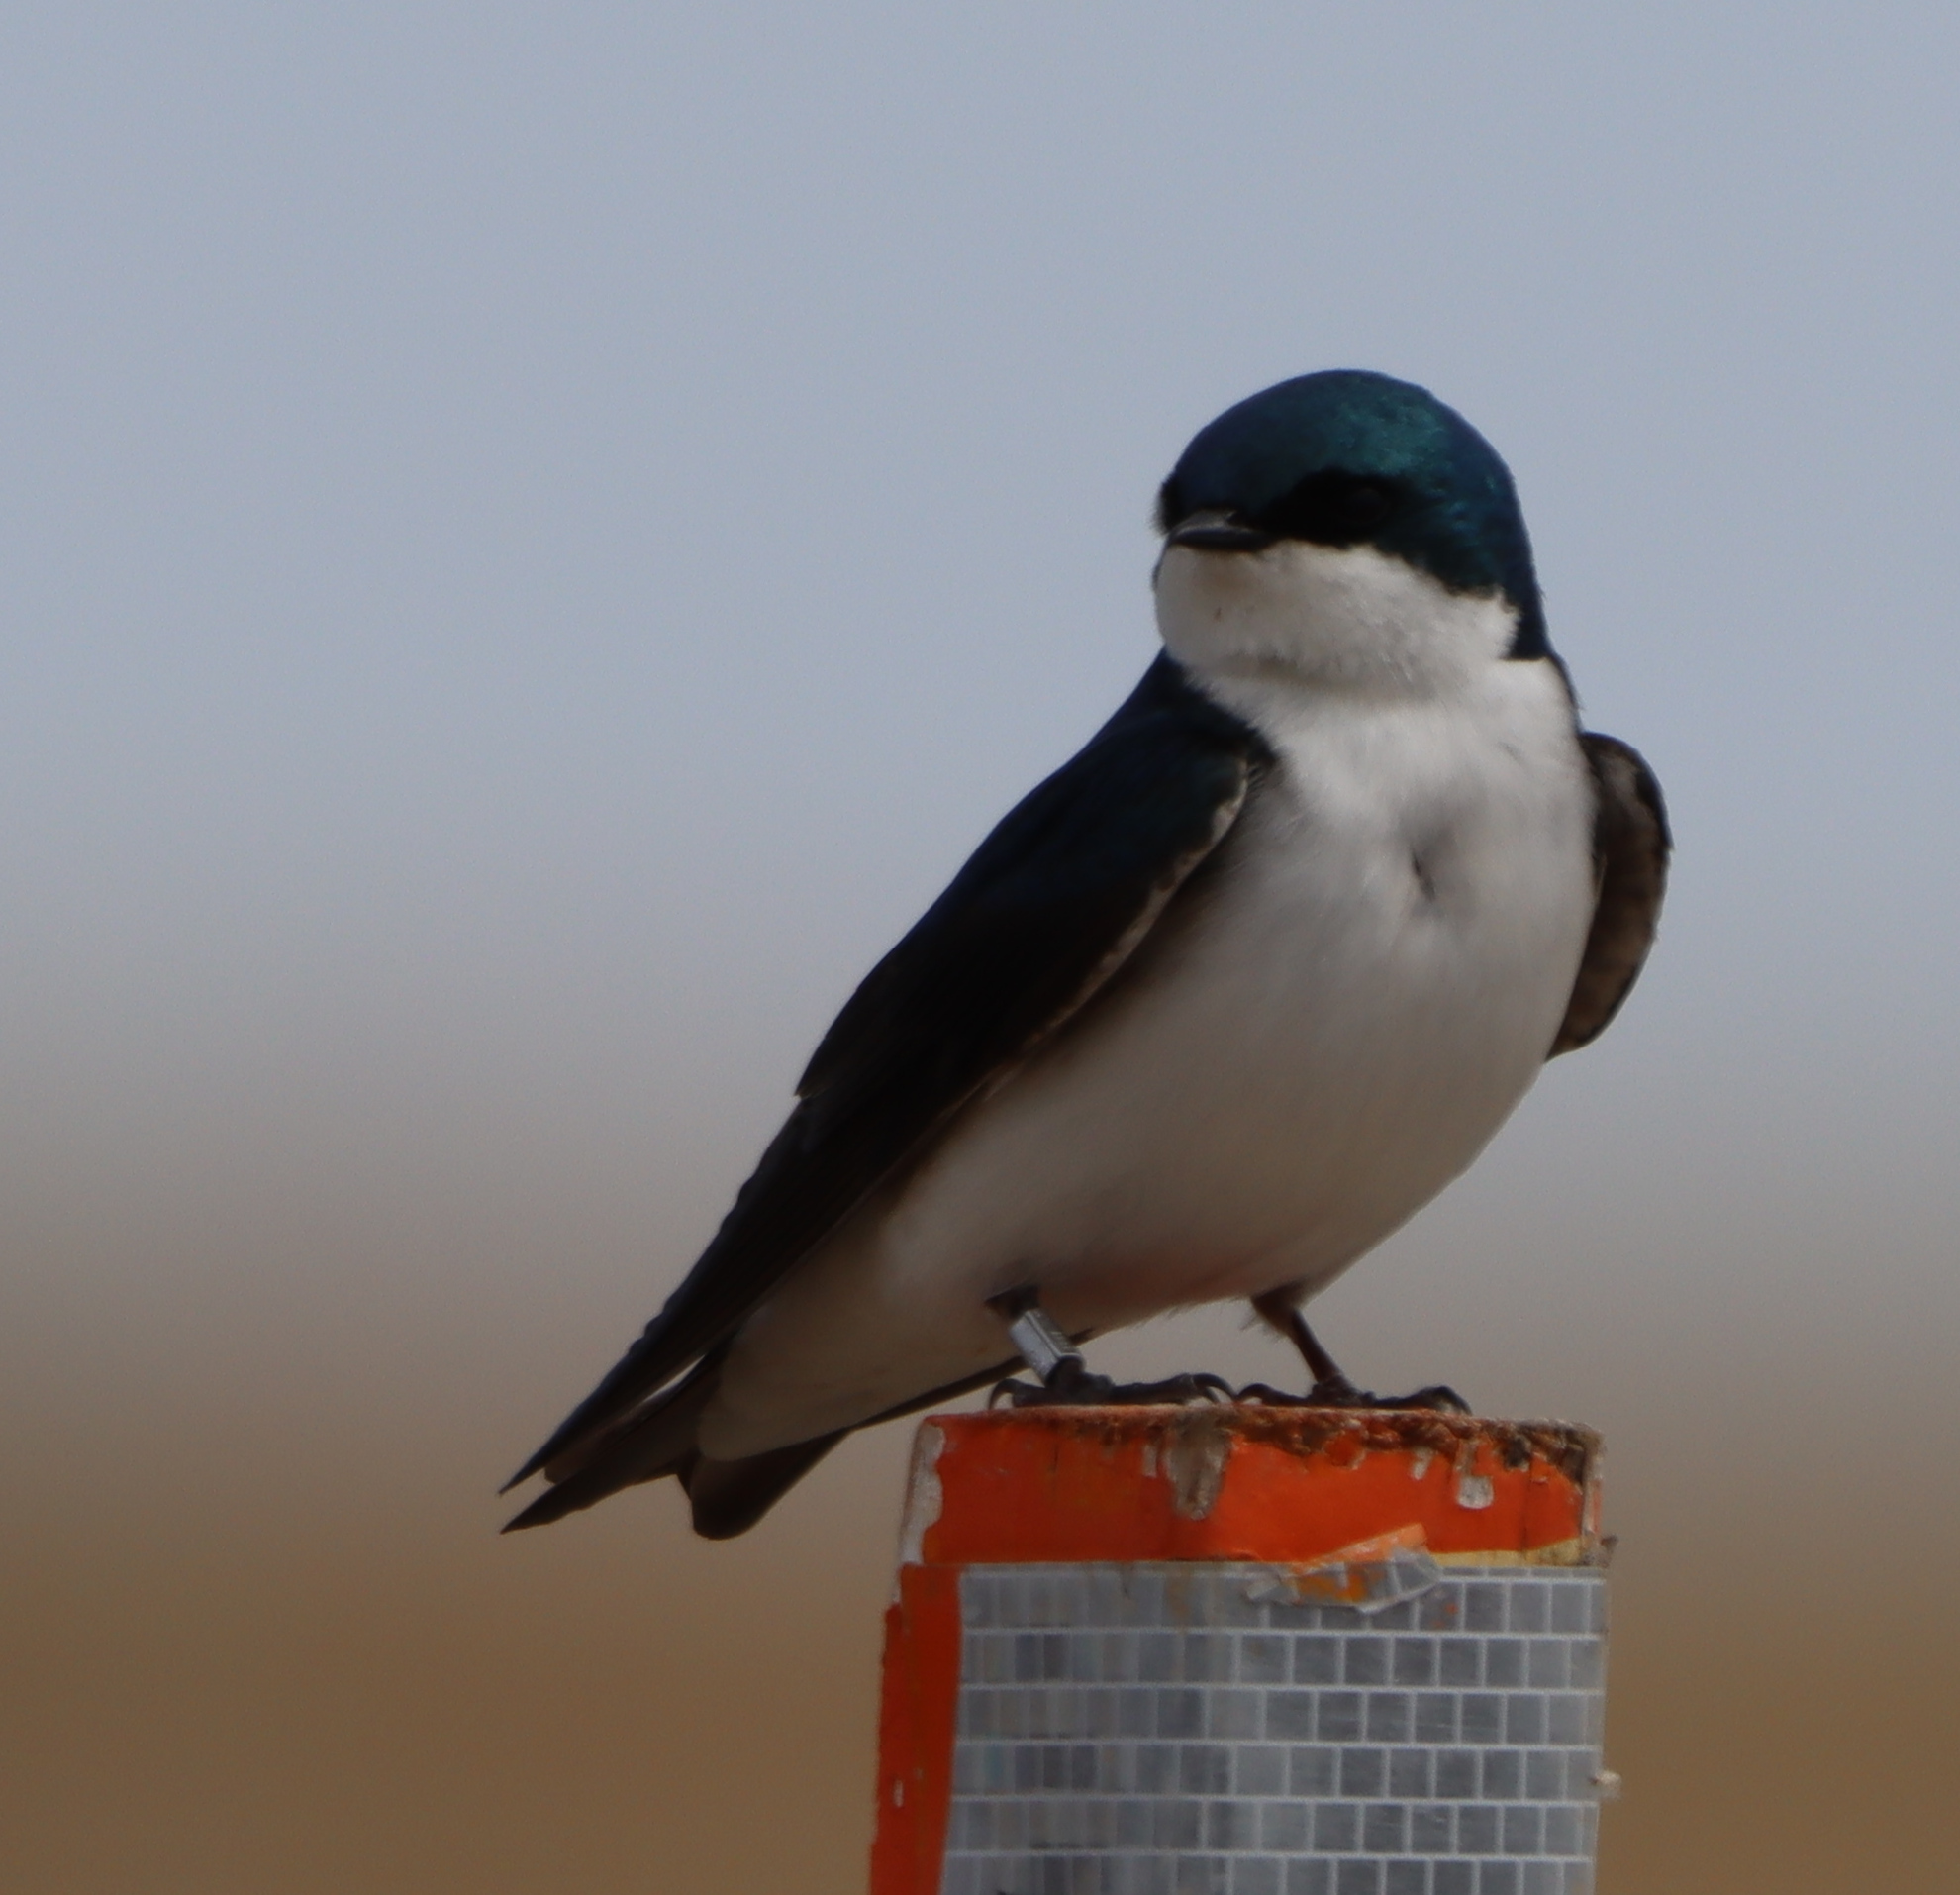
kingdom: Animalia
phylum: Chordata
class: Aves
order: Passeriformes
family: Hirundinidae
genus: Tachycineta
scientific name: Tachycineta bicolor
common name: Tree swallow
